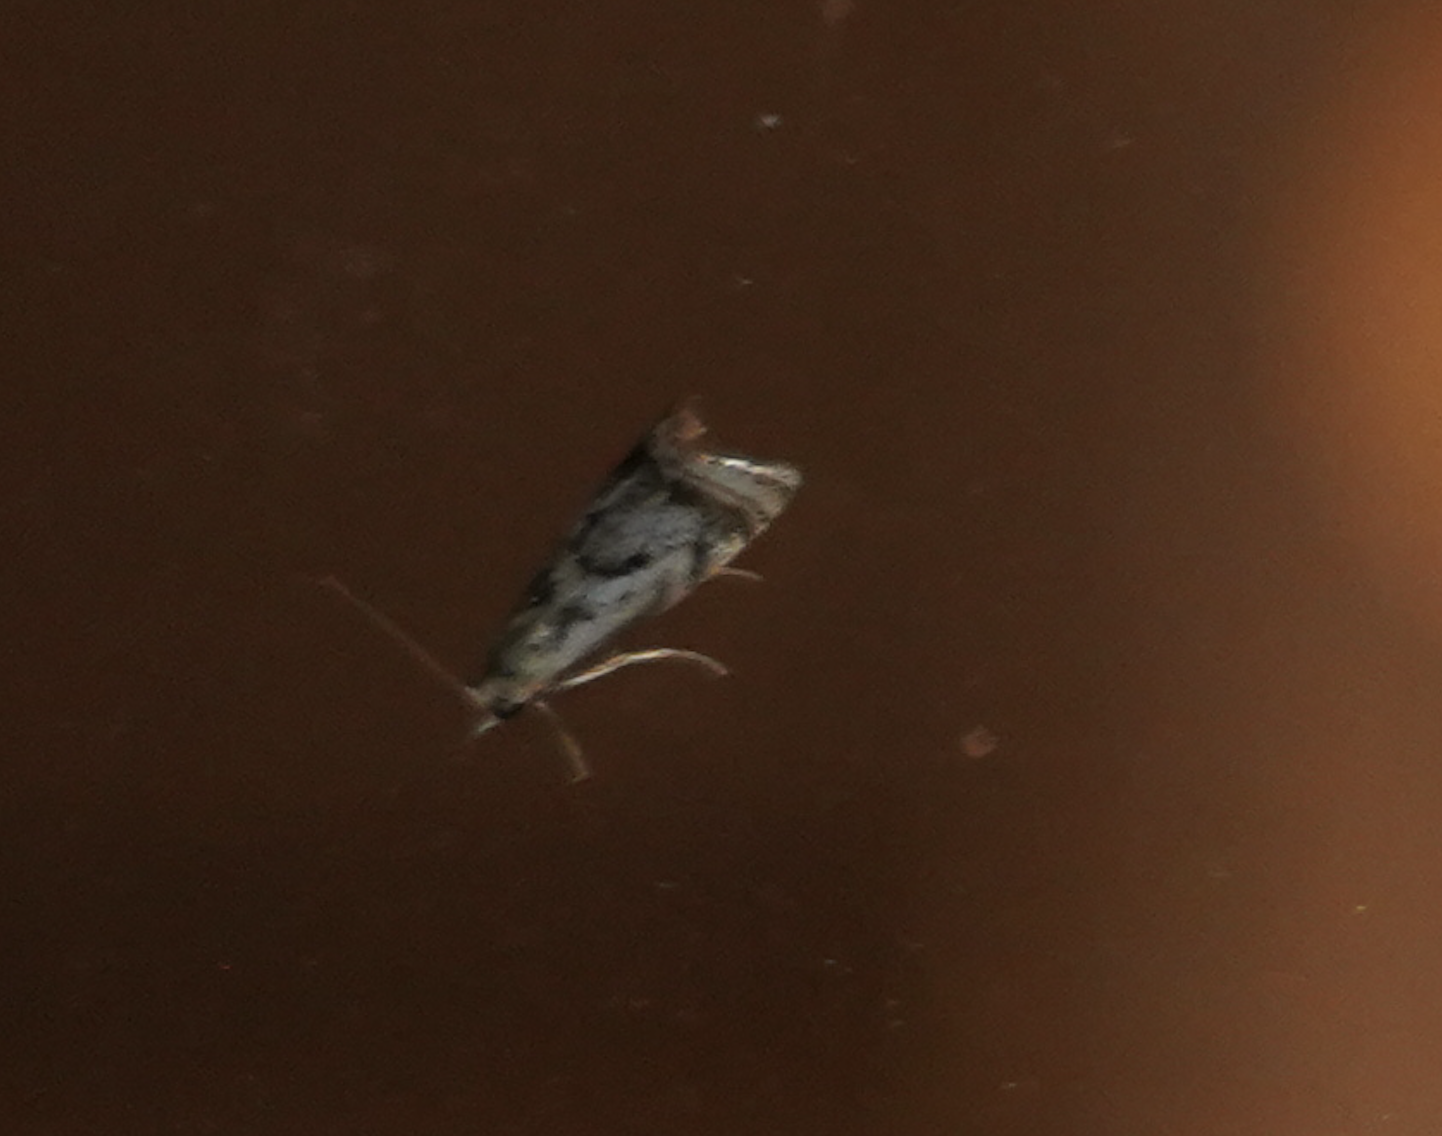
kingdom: Animalia
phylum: Arthropoda
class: Insecta
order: Lepidoptera
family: Crambidae
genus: Microcrambus
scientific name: Microcrambus elegans
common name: Elegant grass-veneer
